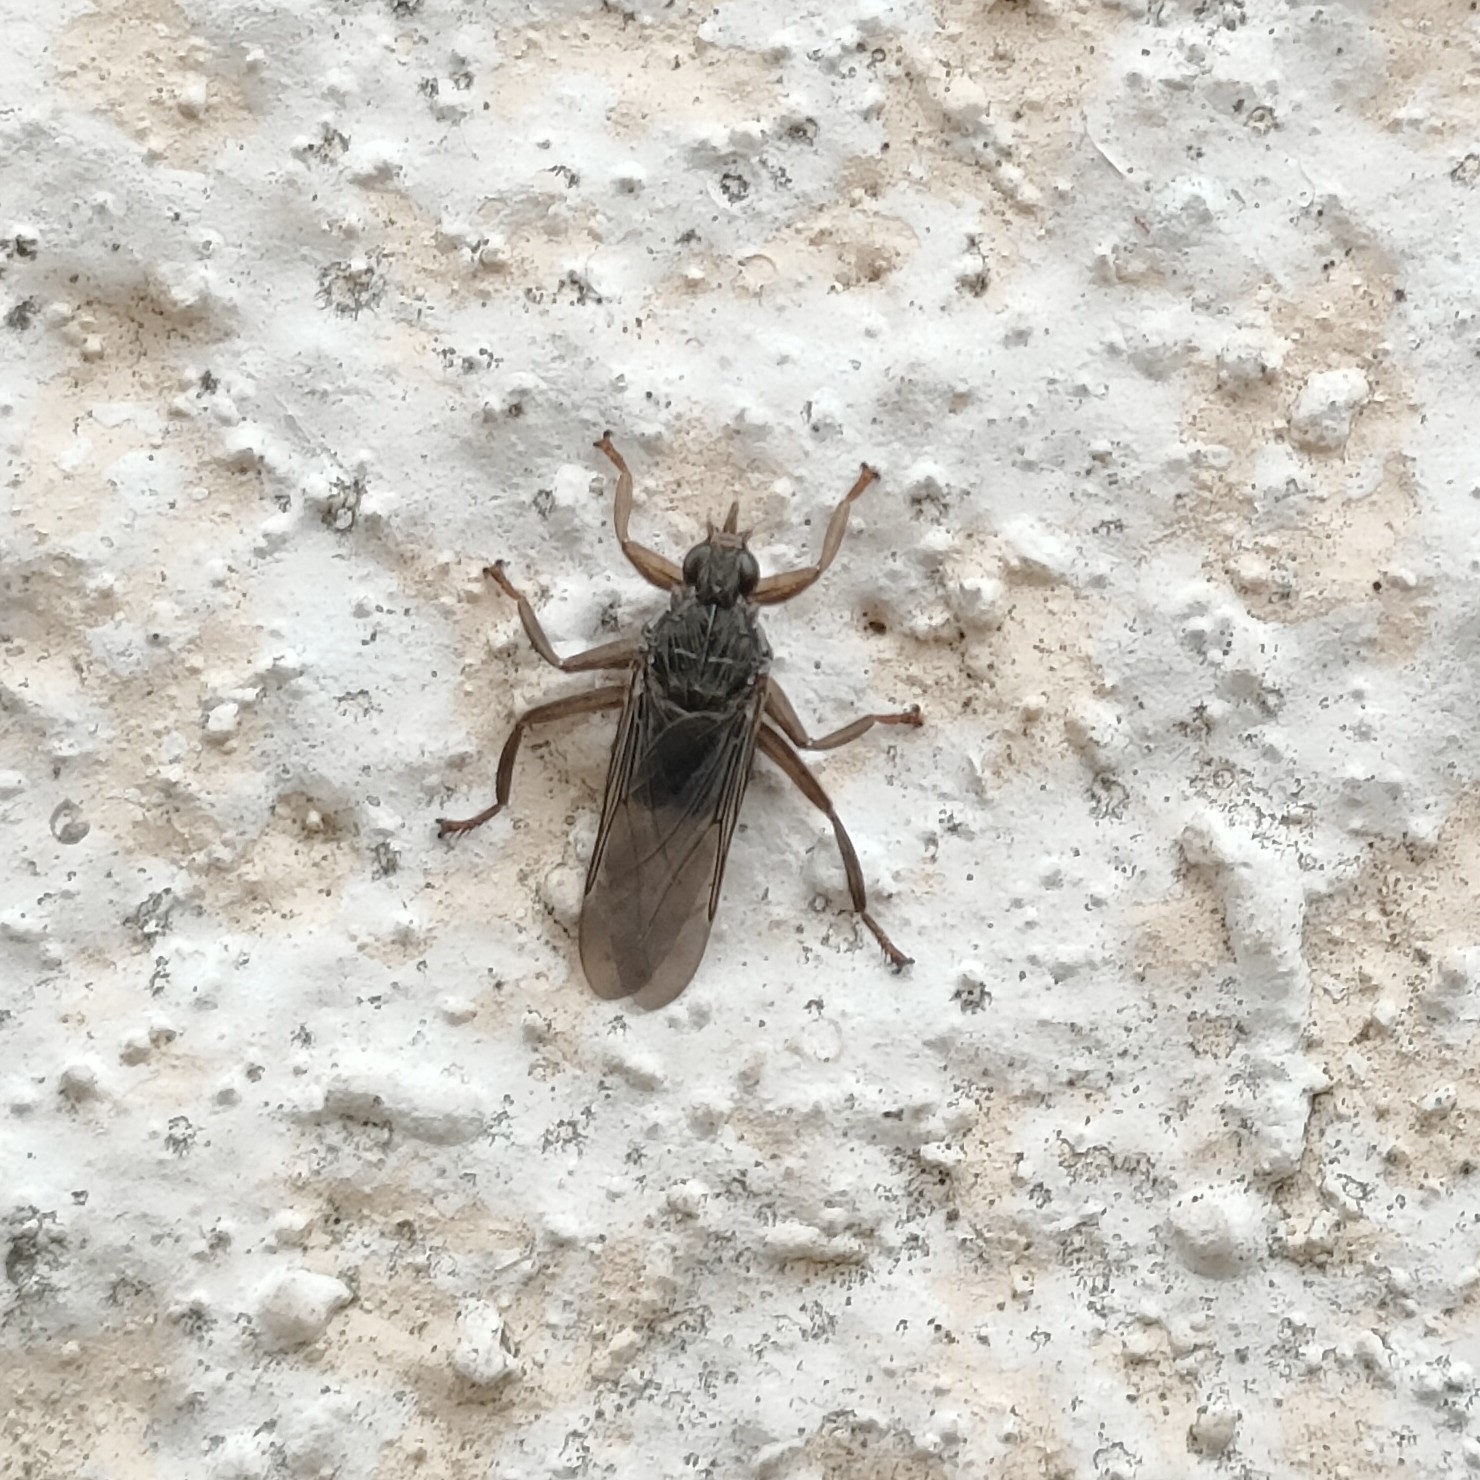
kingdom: Animalia
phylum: Arthropoda
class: Insecta
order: Diptera
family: Hippoboscidae
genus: Pseudolynchia
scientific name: Pseudolynchia canariensis
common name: Louse fly
